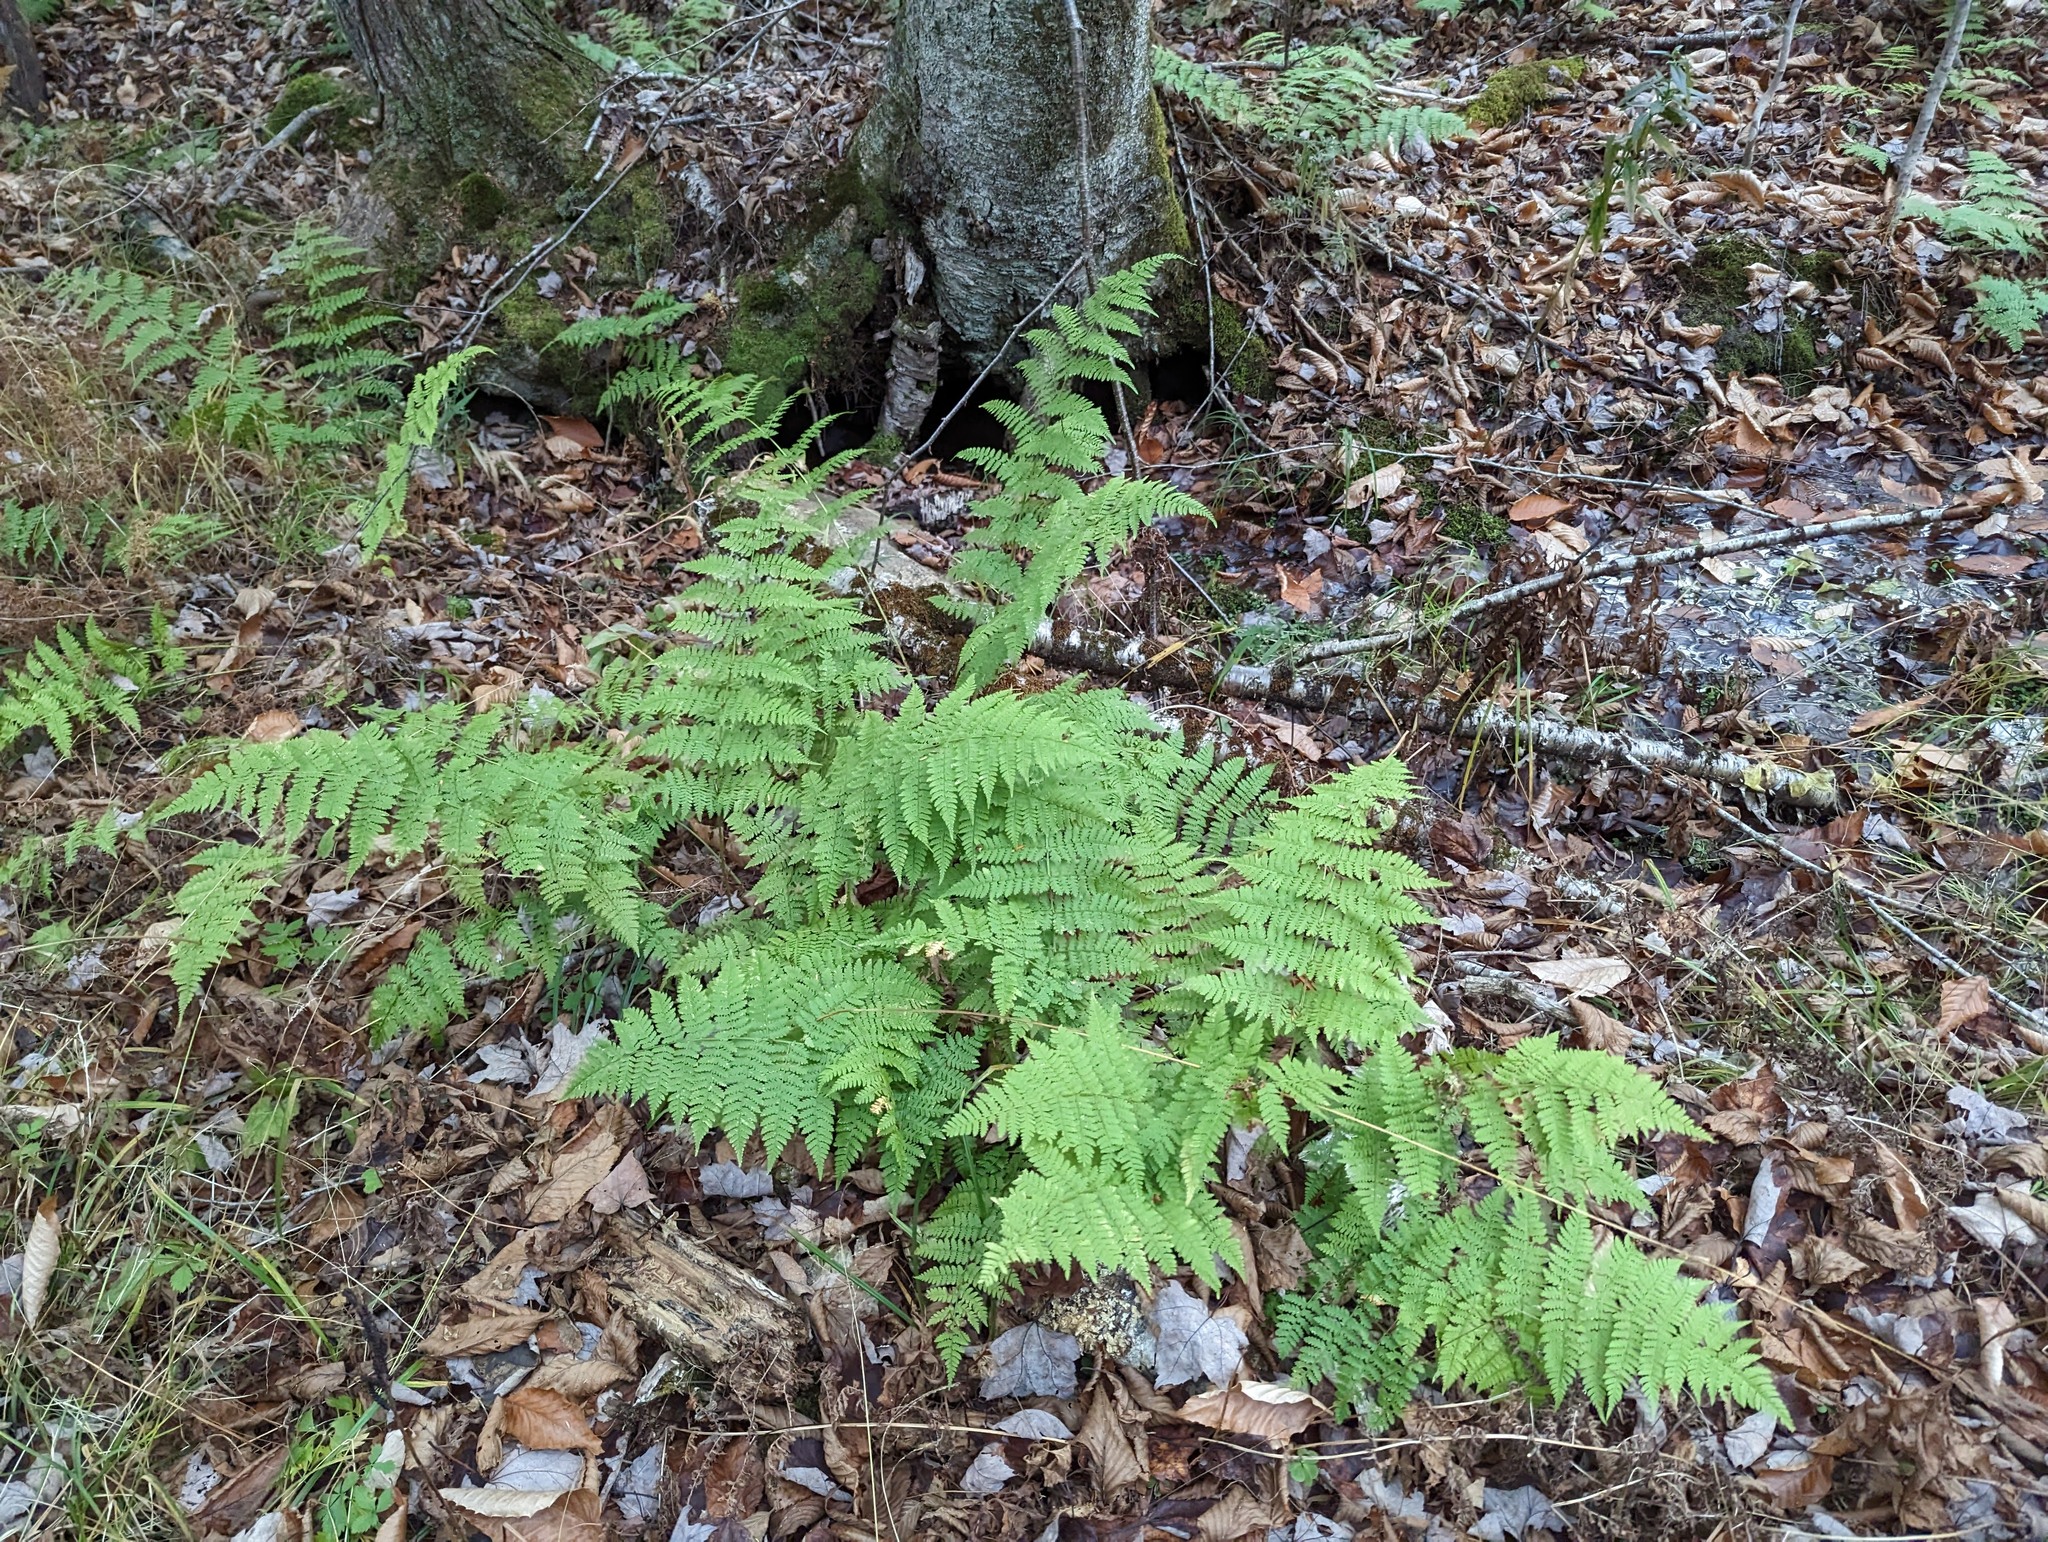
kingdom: Plantae
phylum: Tracheophyta
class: Polypodiopsida
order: Polypodiales
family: Dryopteridaceae
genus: Dryopteris
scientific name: Dryopteris intermedia
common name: Evergreen wood fern
